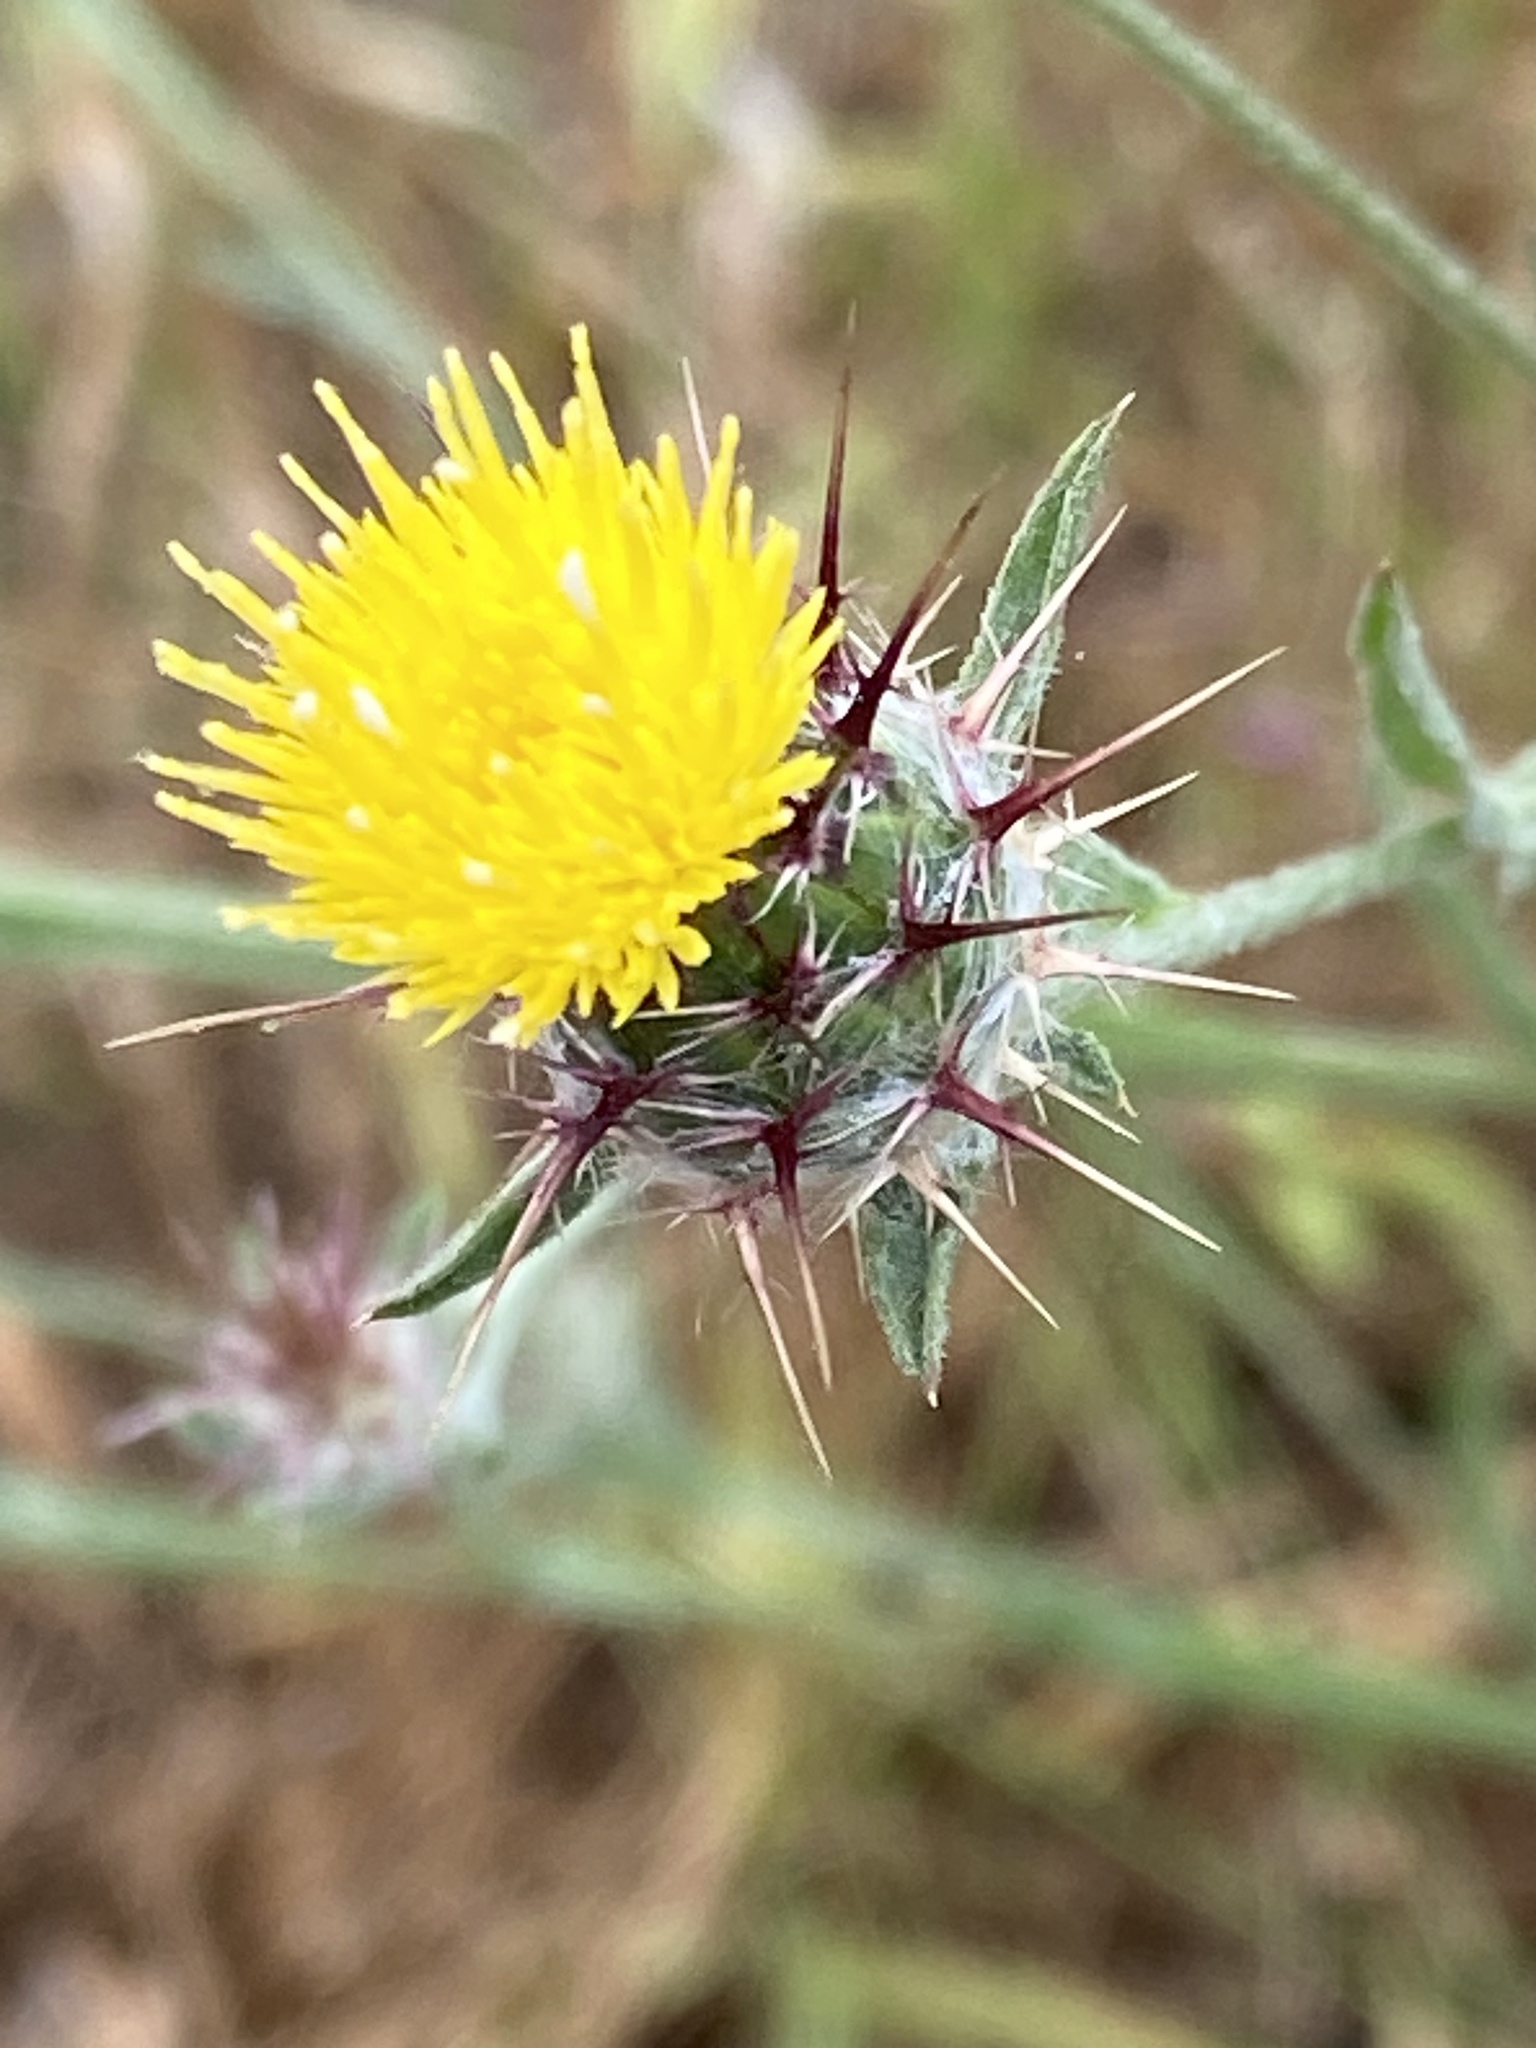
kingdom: Plantae
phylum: Tracheophyta
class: Magnoliopsida
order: Asterales
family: Asteraceae
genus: Centaurea
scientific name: Centaurea melitensis
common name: Maltese star-thistle
